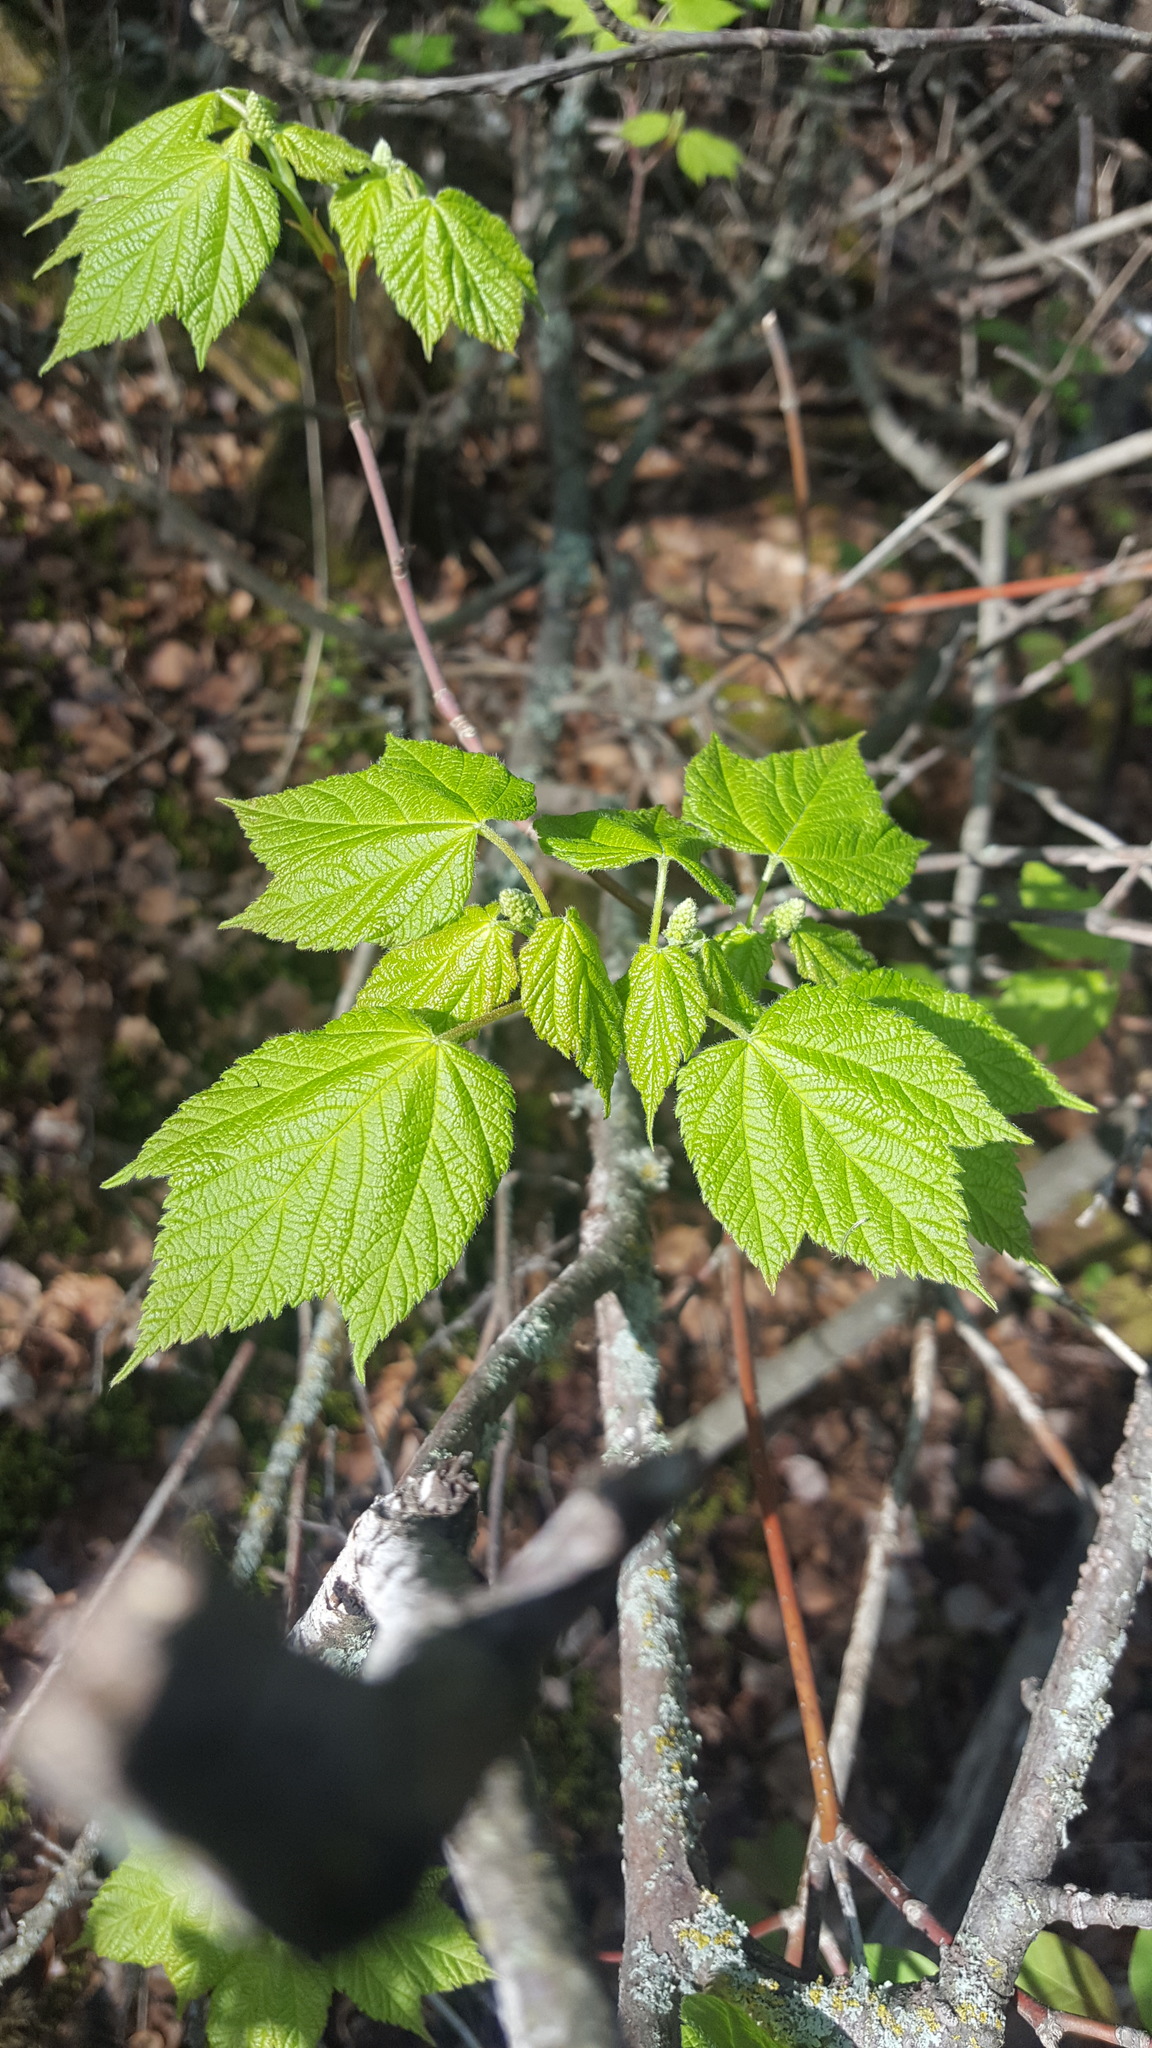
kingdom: Plantae
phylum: Tracheophyta
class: Magnoliopsida
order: Sapindales
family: Sapindaceae
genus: Acer
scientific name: Acer spicatum
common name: Mountain maple
